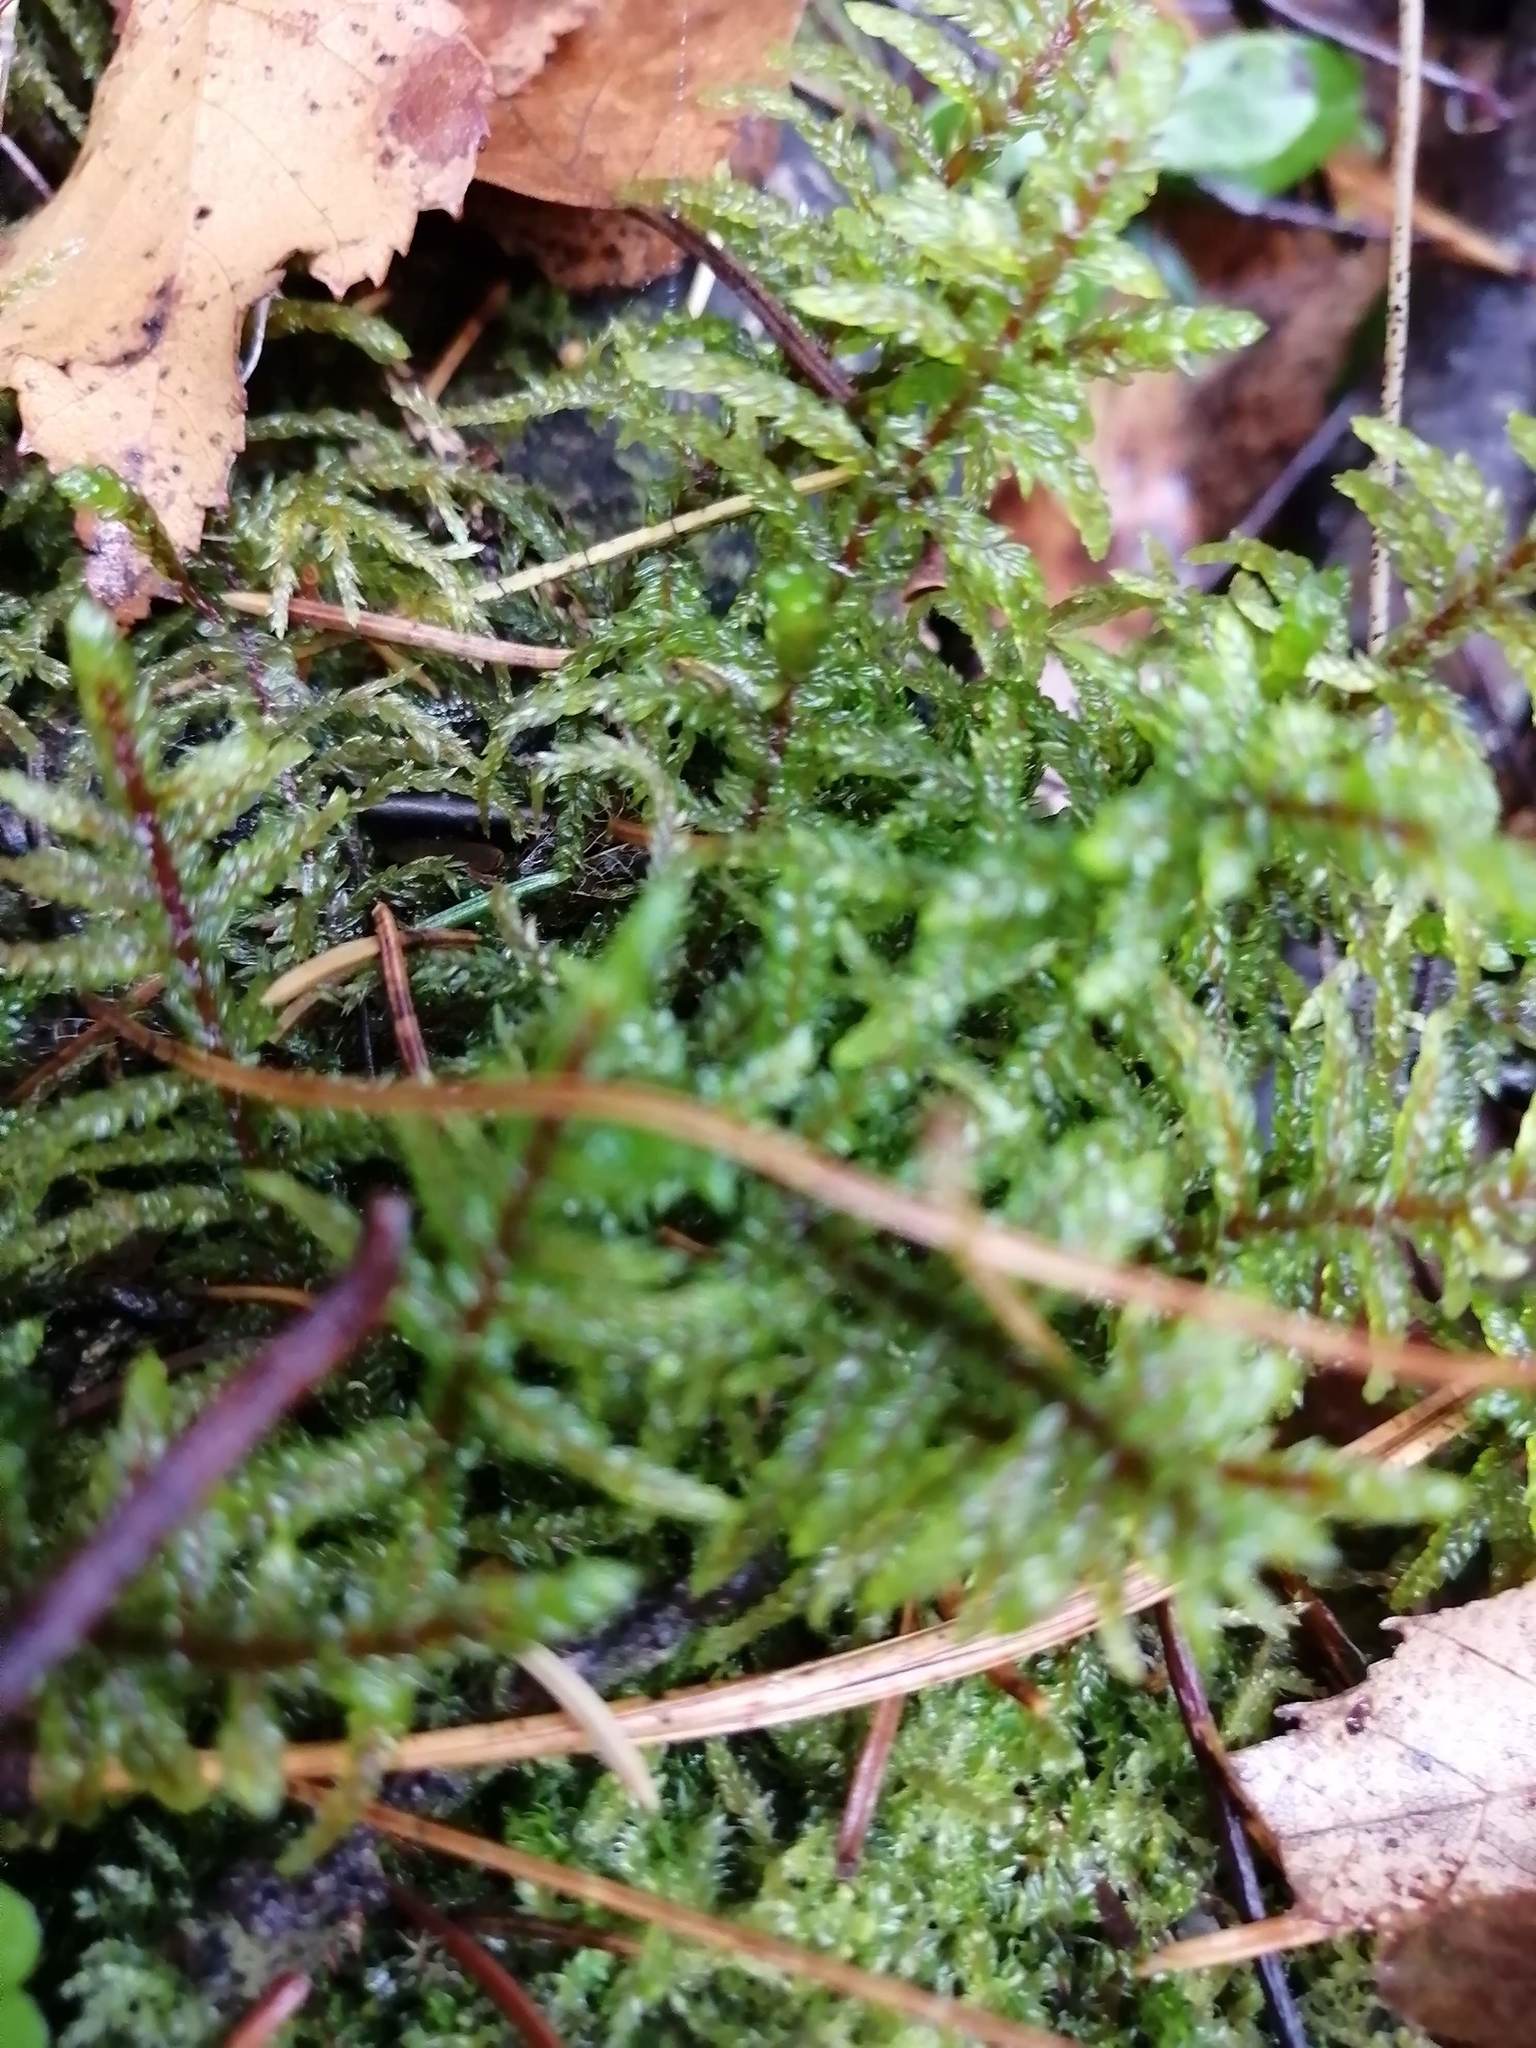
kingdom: Plantae
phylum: Bryophyta
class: Bryopsida
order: Hypnales
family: Hylocomiaceae
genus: Pleurozium
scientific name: Pleurozium schreberi
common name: Red-stemmed feather moss
